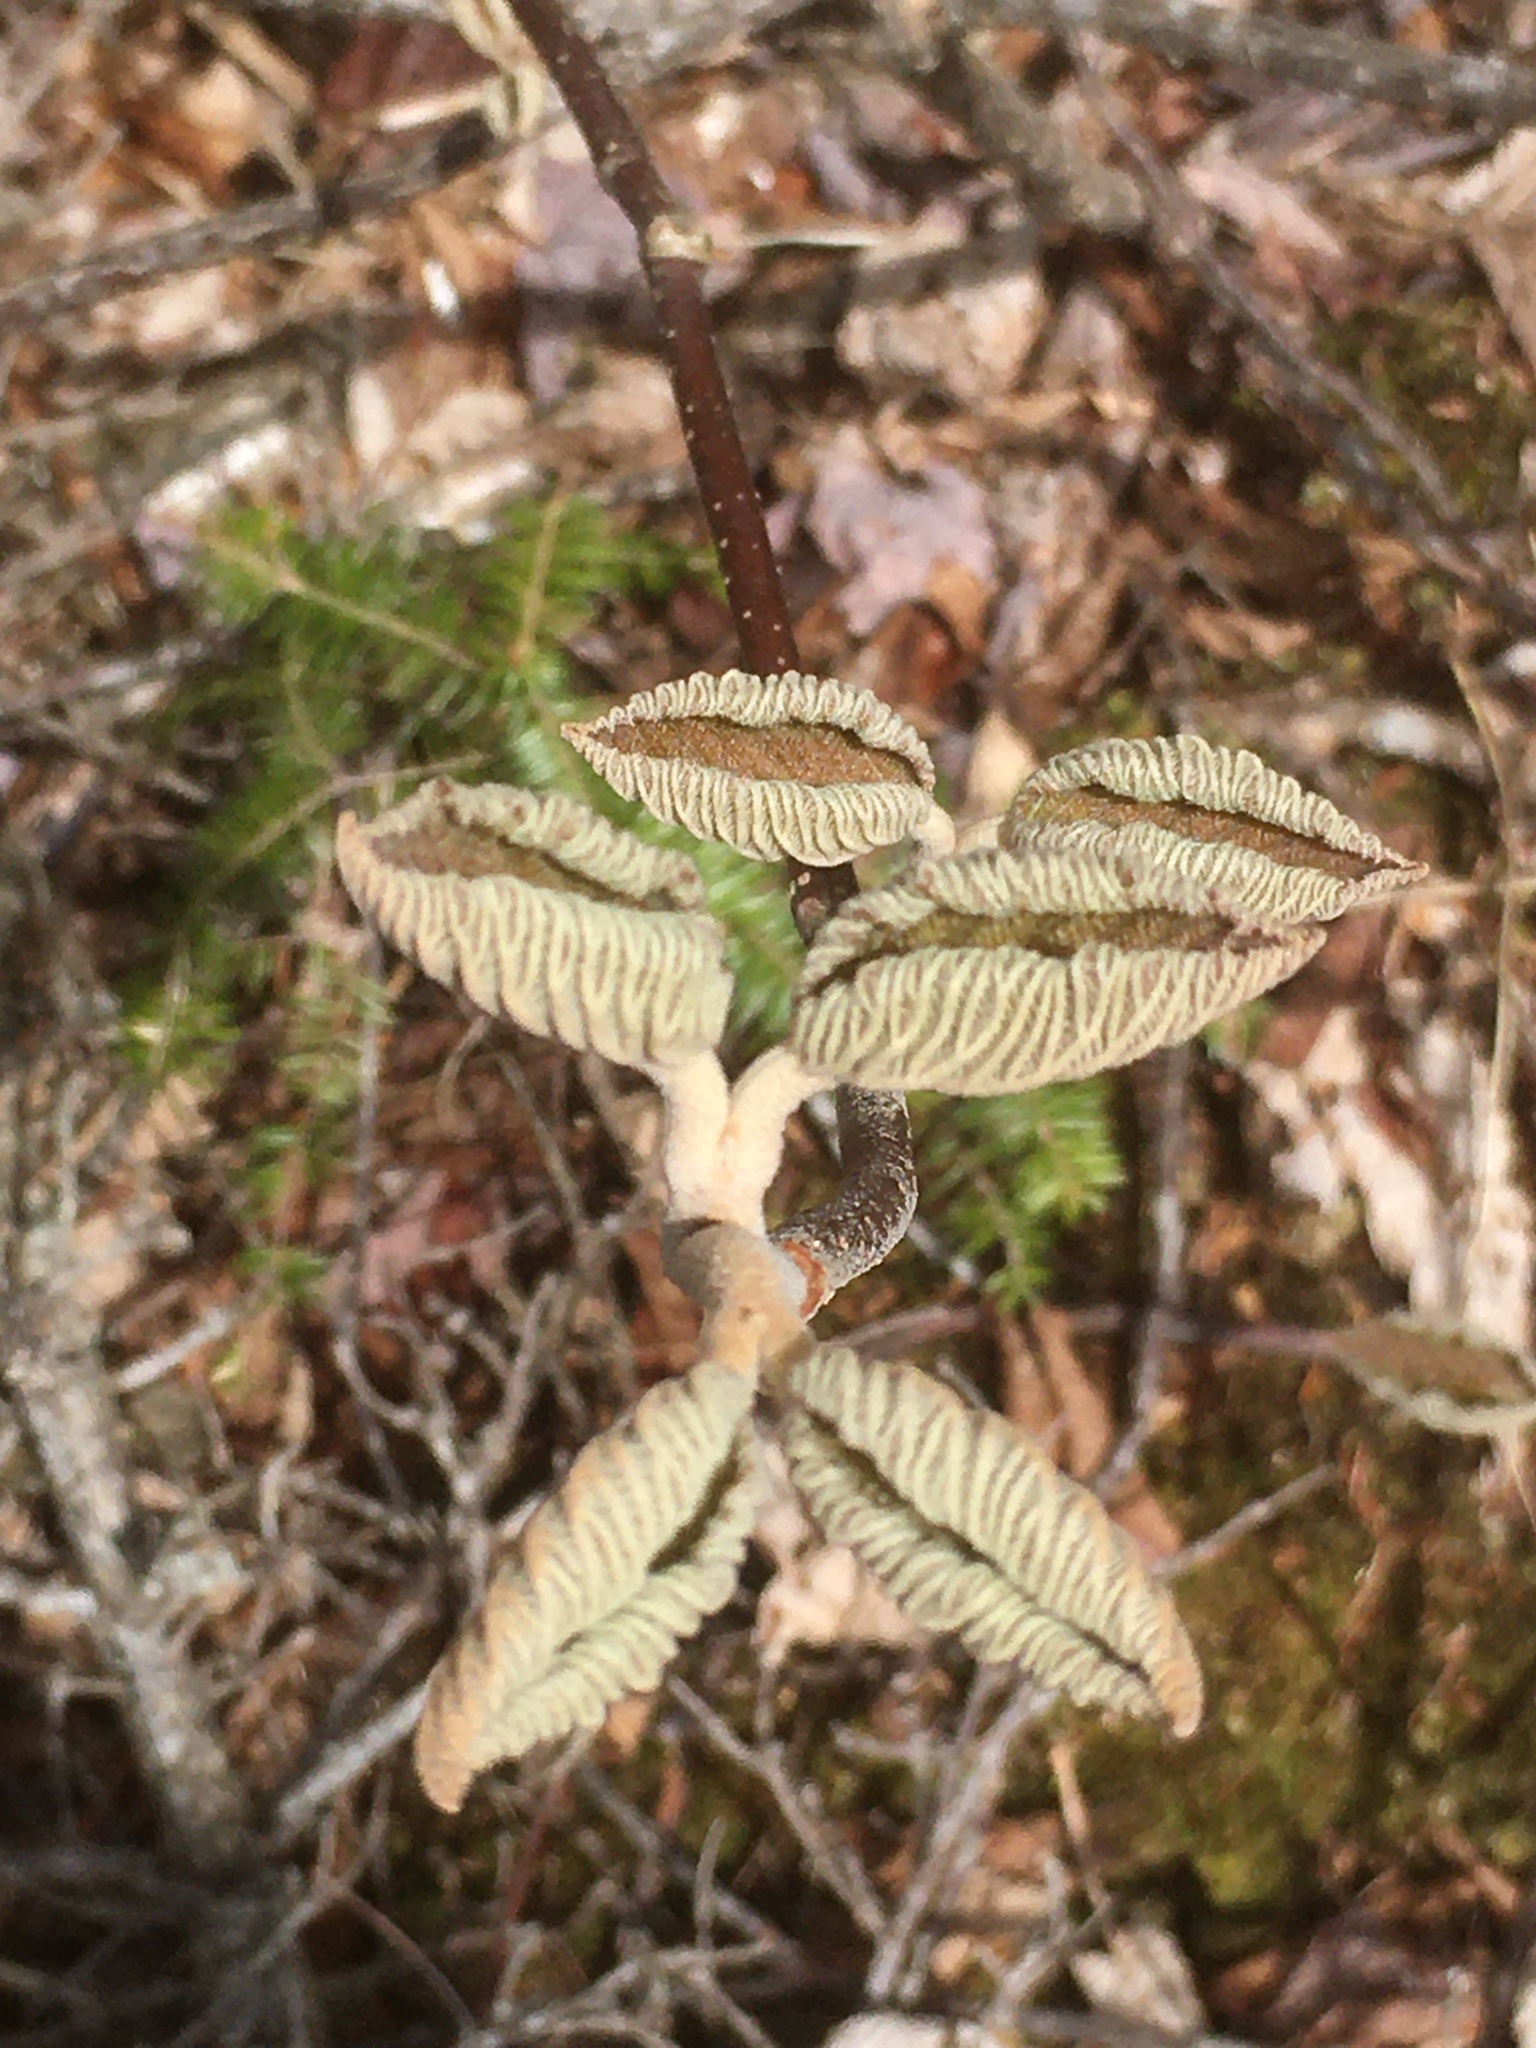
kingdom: Plantae
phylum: Tracheophyta
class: Magnoliopsida
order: Dipsacales
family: Viburnaceae
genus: Viburnum
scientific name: Viburnum lantanoides
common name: Hobblebush
